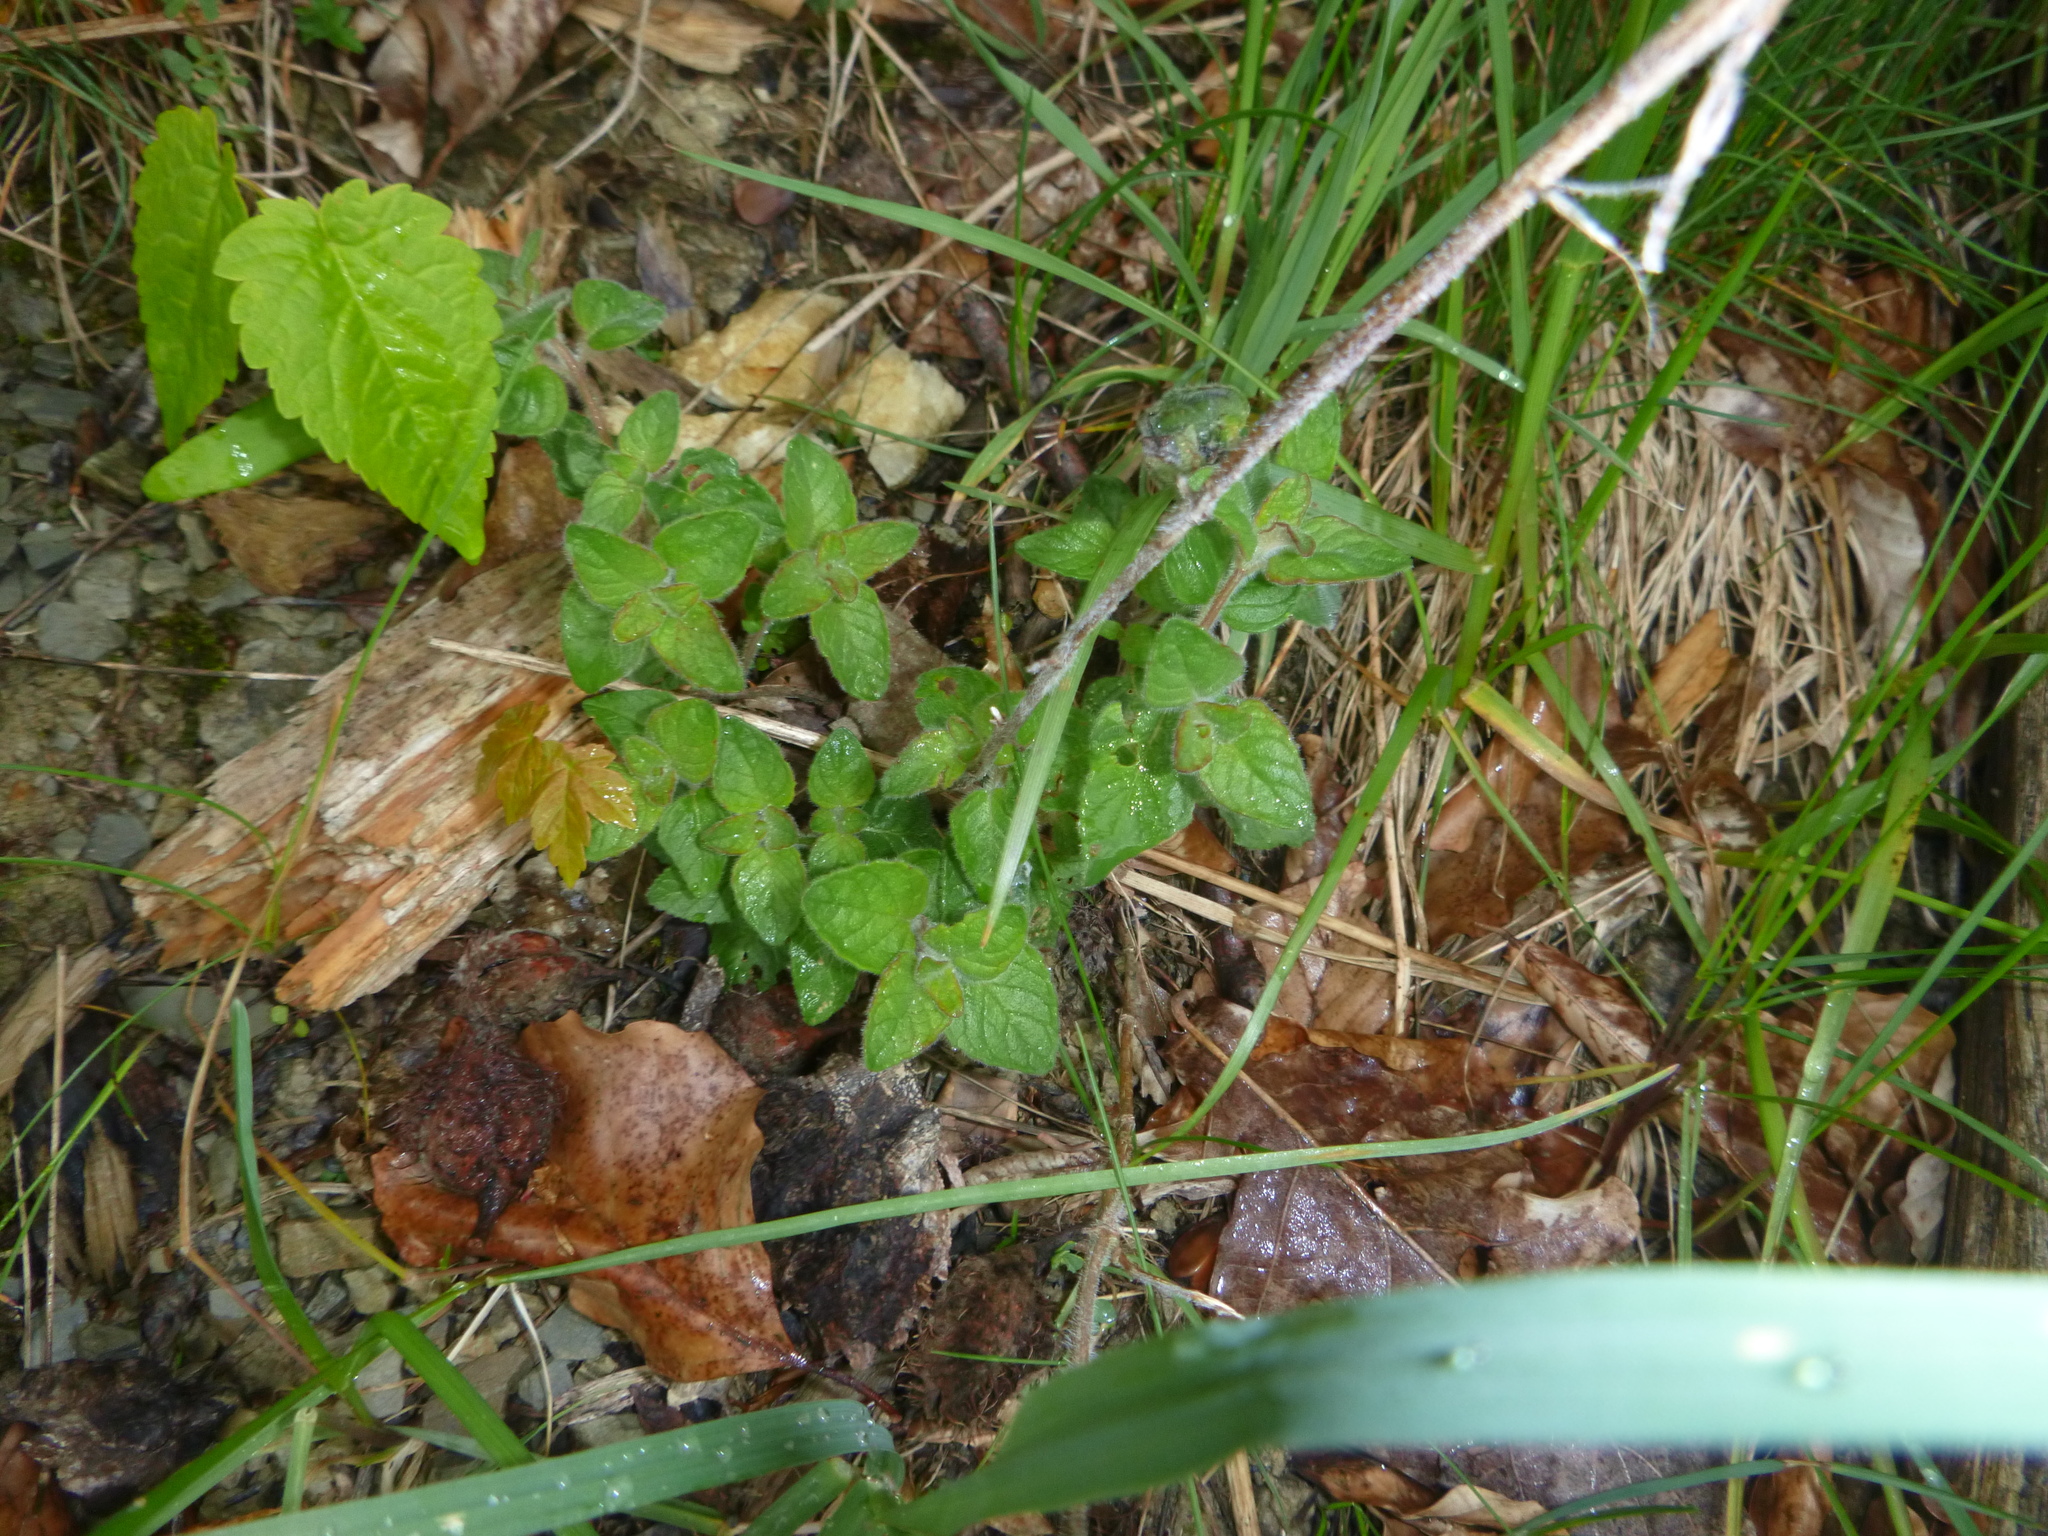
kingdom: Plantae
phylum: Tracheophyta
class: Magnoliopsida
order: Lamiales
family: Lamiaceae
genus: Clinopodium
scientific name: Clinopodium vulgare
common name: Wild basil
